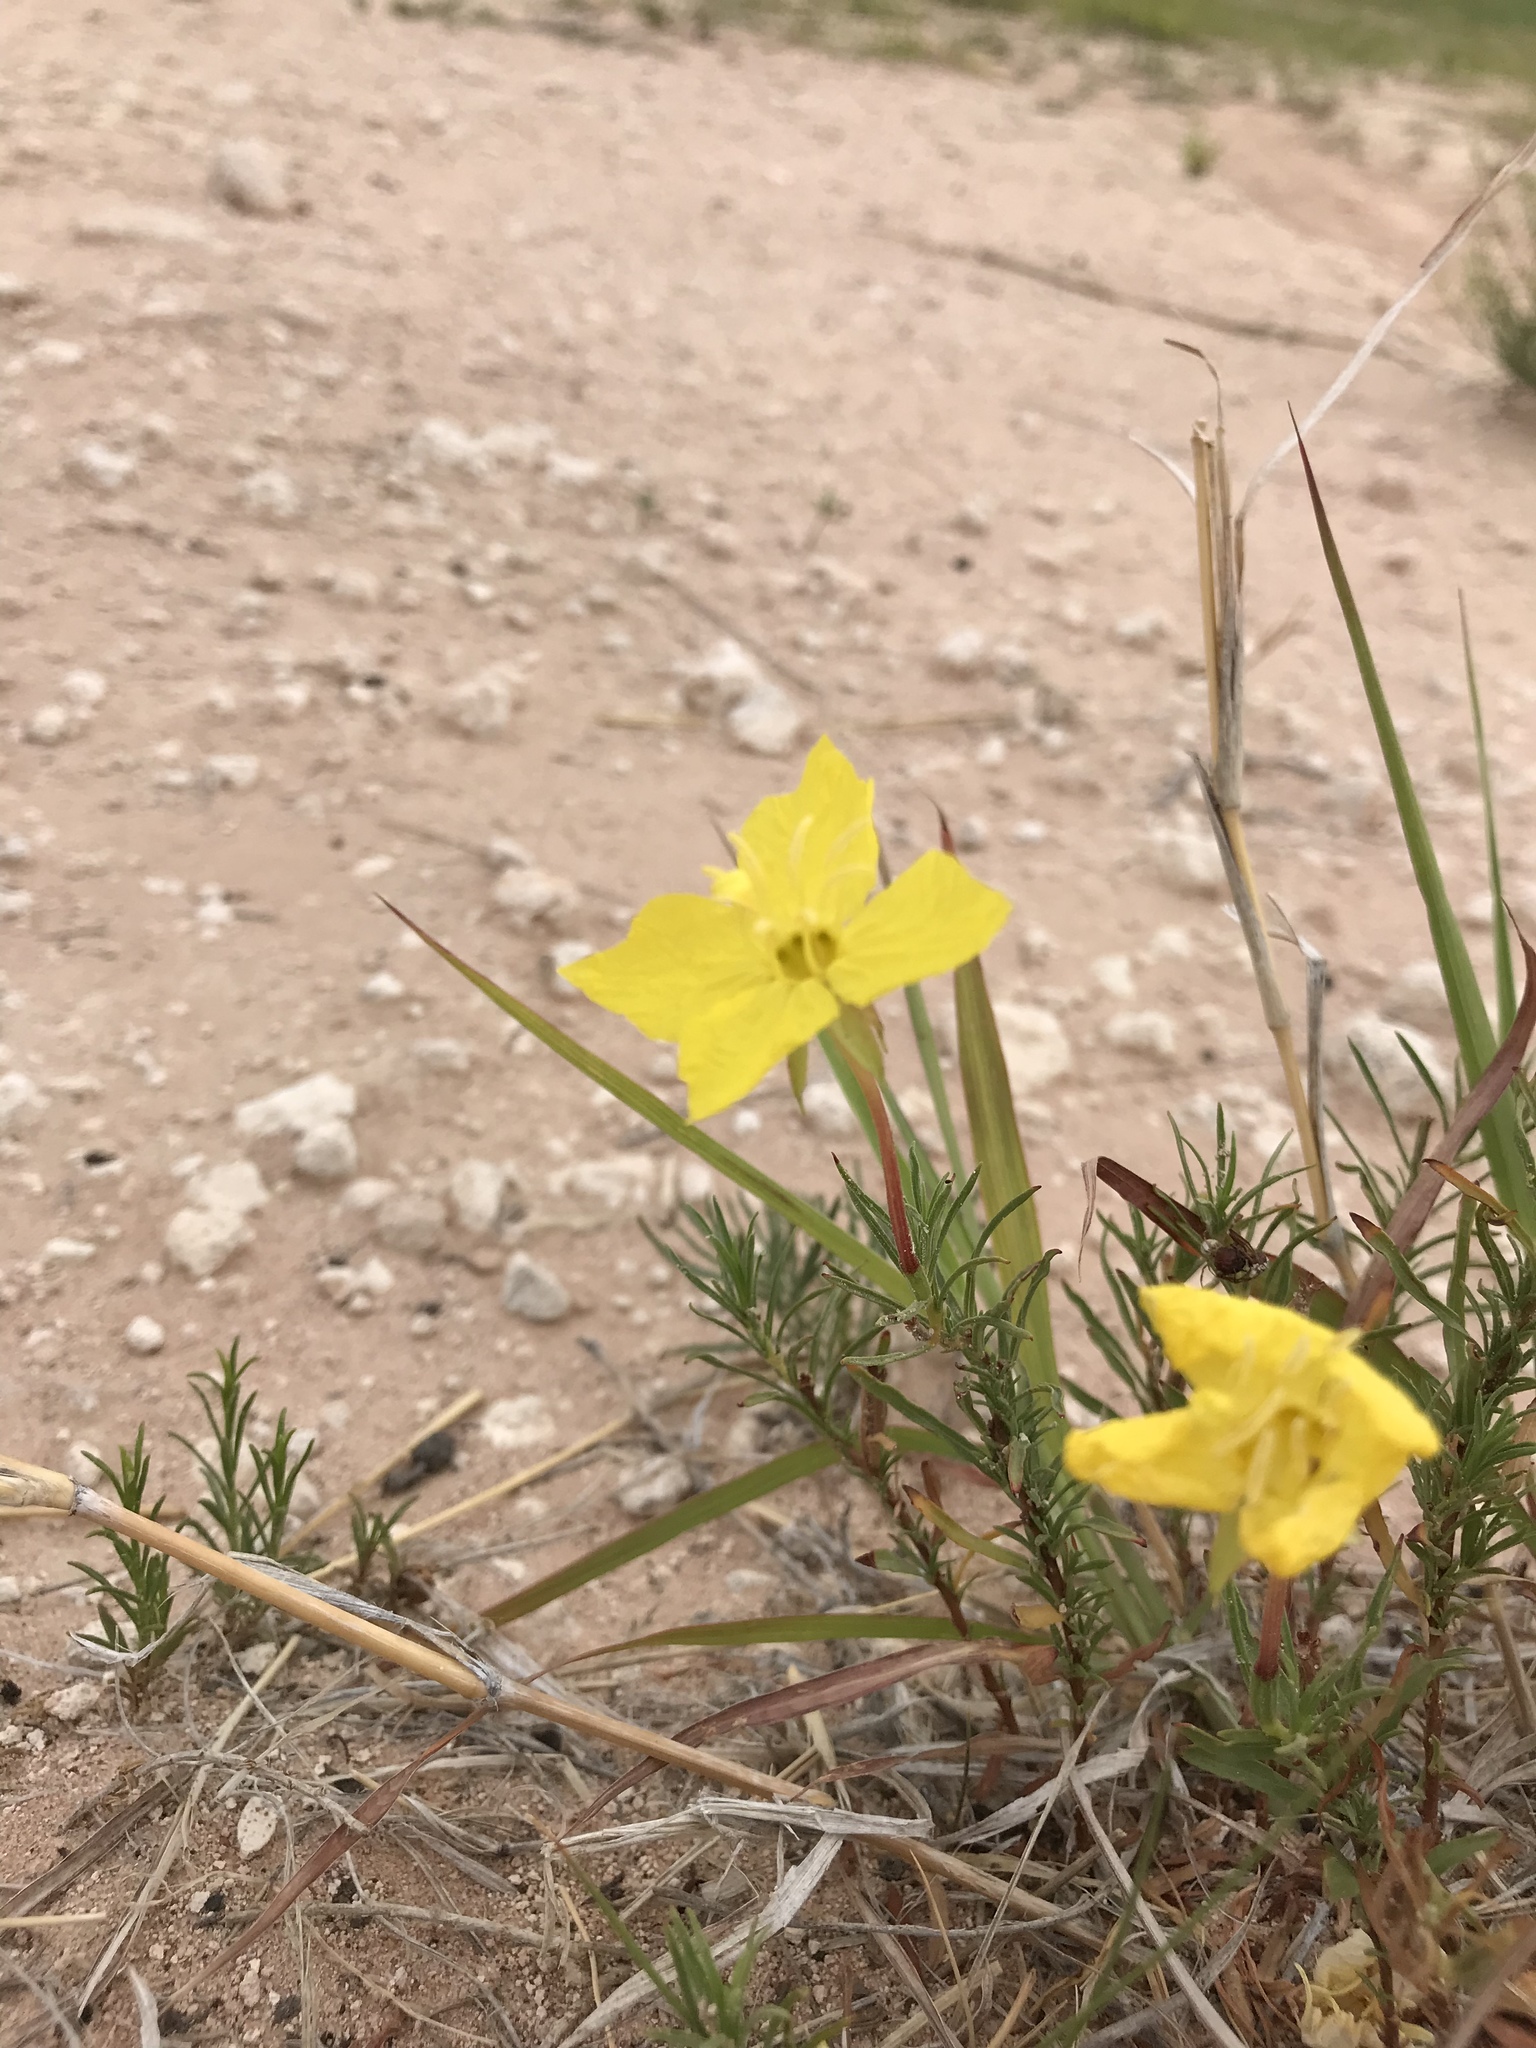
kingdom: Plantae
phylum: Tracheophyta
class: Magnoliopsida
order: Myrtales
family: Onagraceae
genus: Oenothera
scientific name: Oenothera hartwegii
